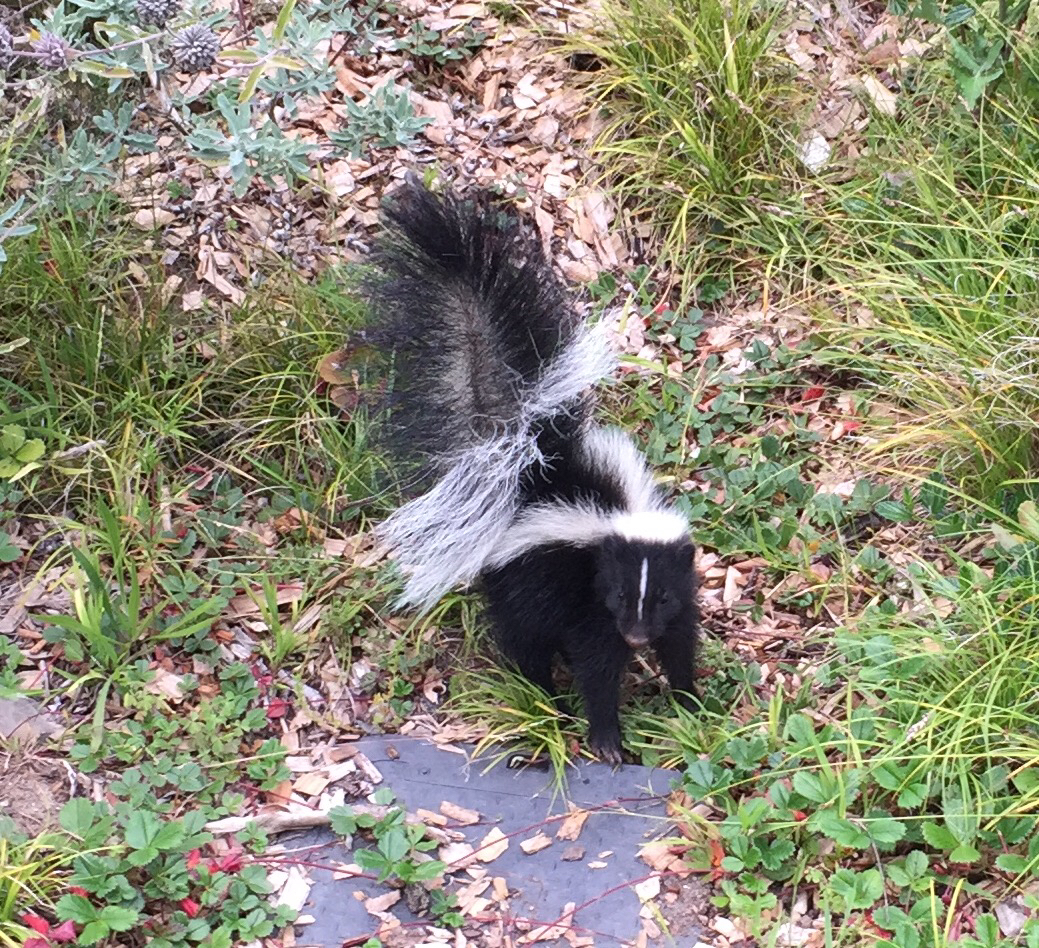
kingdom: Animalia
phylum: Chordata
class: Mammalia
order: Carnivora
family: Mephitidae
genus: Mephitis
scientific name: Mephitis mephitis
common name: Striped skunk
